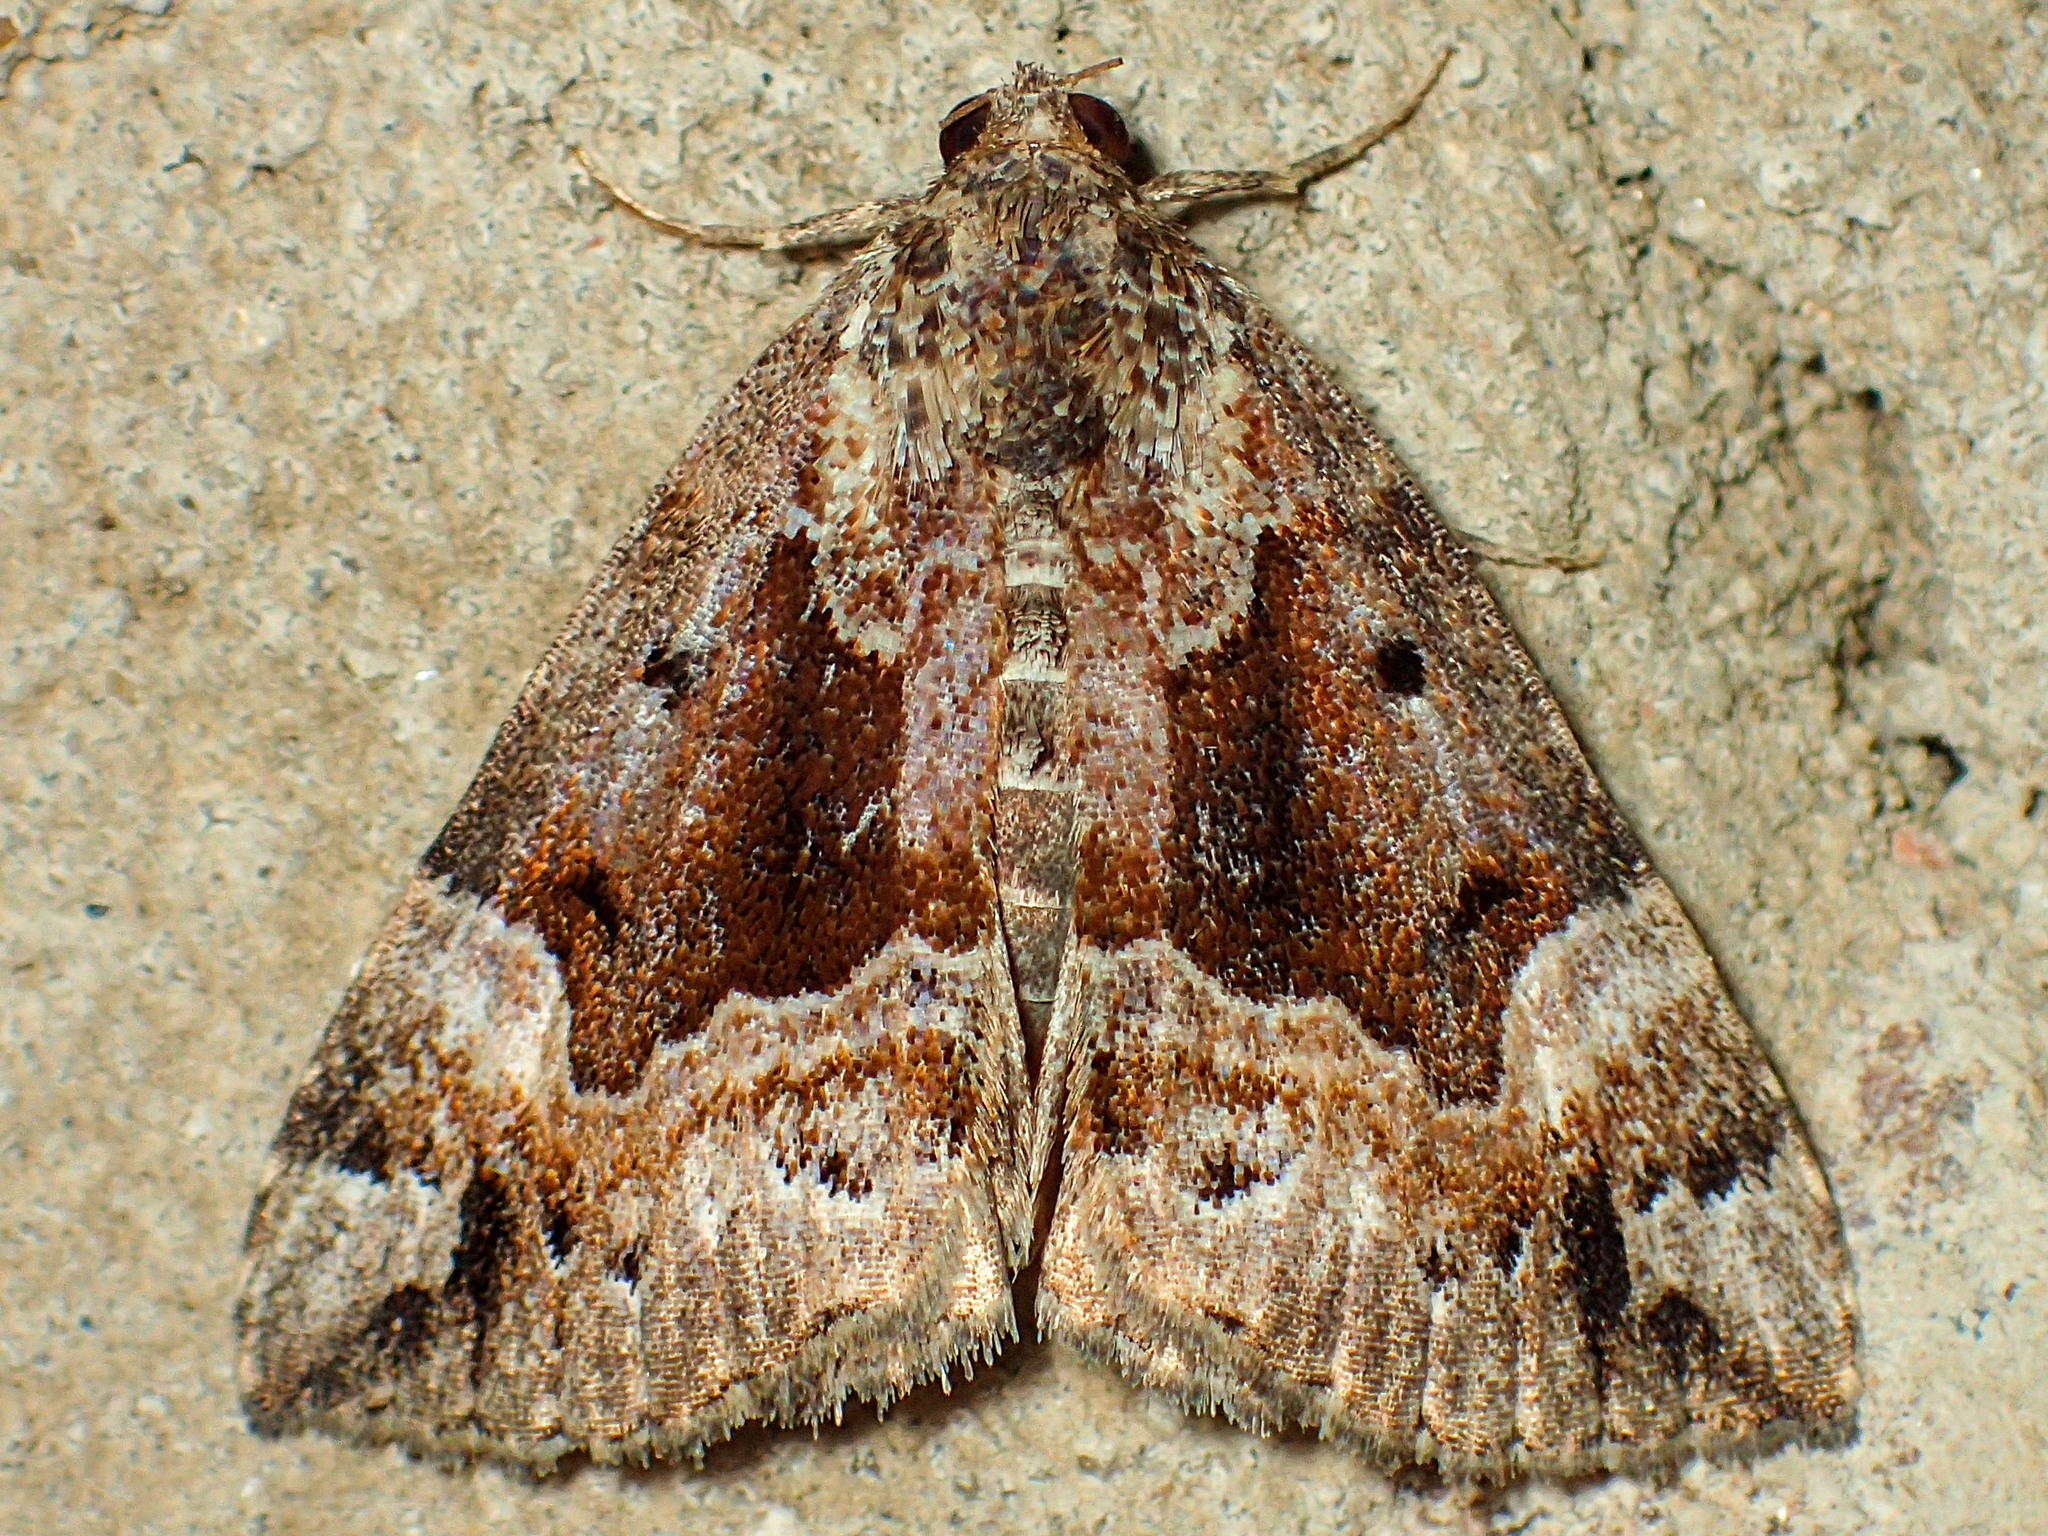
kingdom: Animalia
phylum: Arthropoda
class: Insecta
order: Lepidoptera
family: Erebidae
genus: Hypena
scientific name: Hypena palparia
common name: Mottled bomolocha moth
